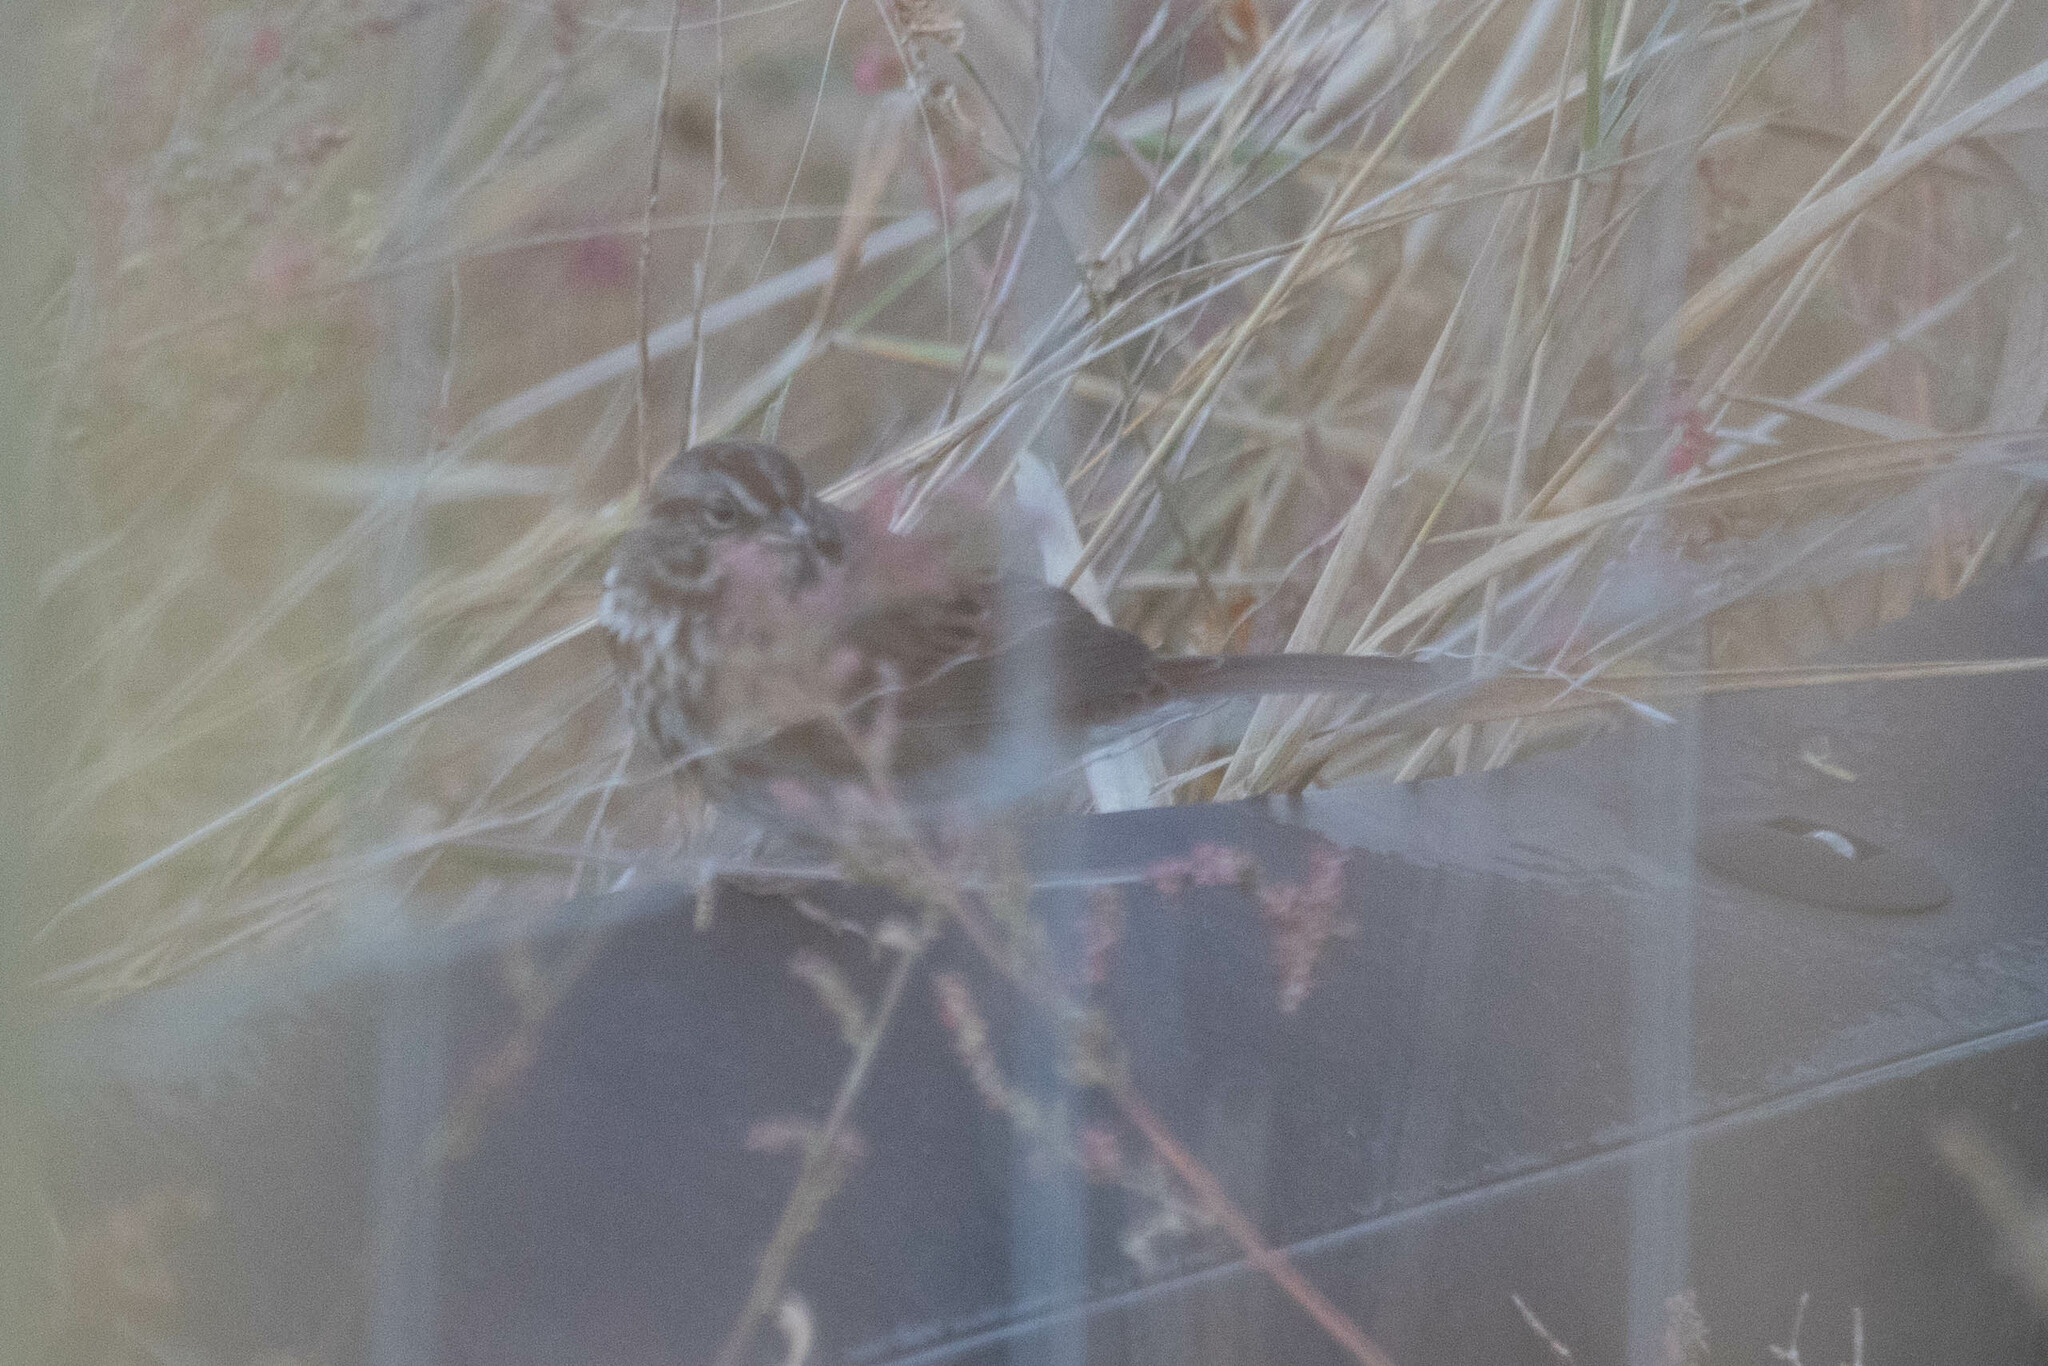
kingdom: Animalia
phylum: Chordata
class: Aves
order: Passeriformes
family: Passerellidae
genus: Melospiza
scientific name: Melospiza melodia
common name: Song sparrow
